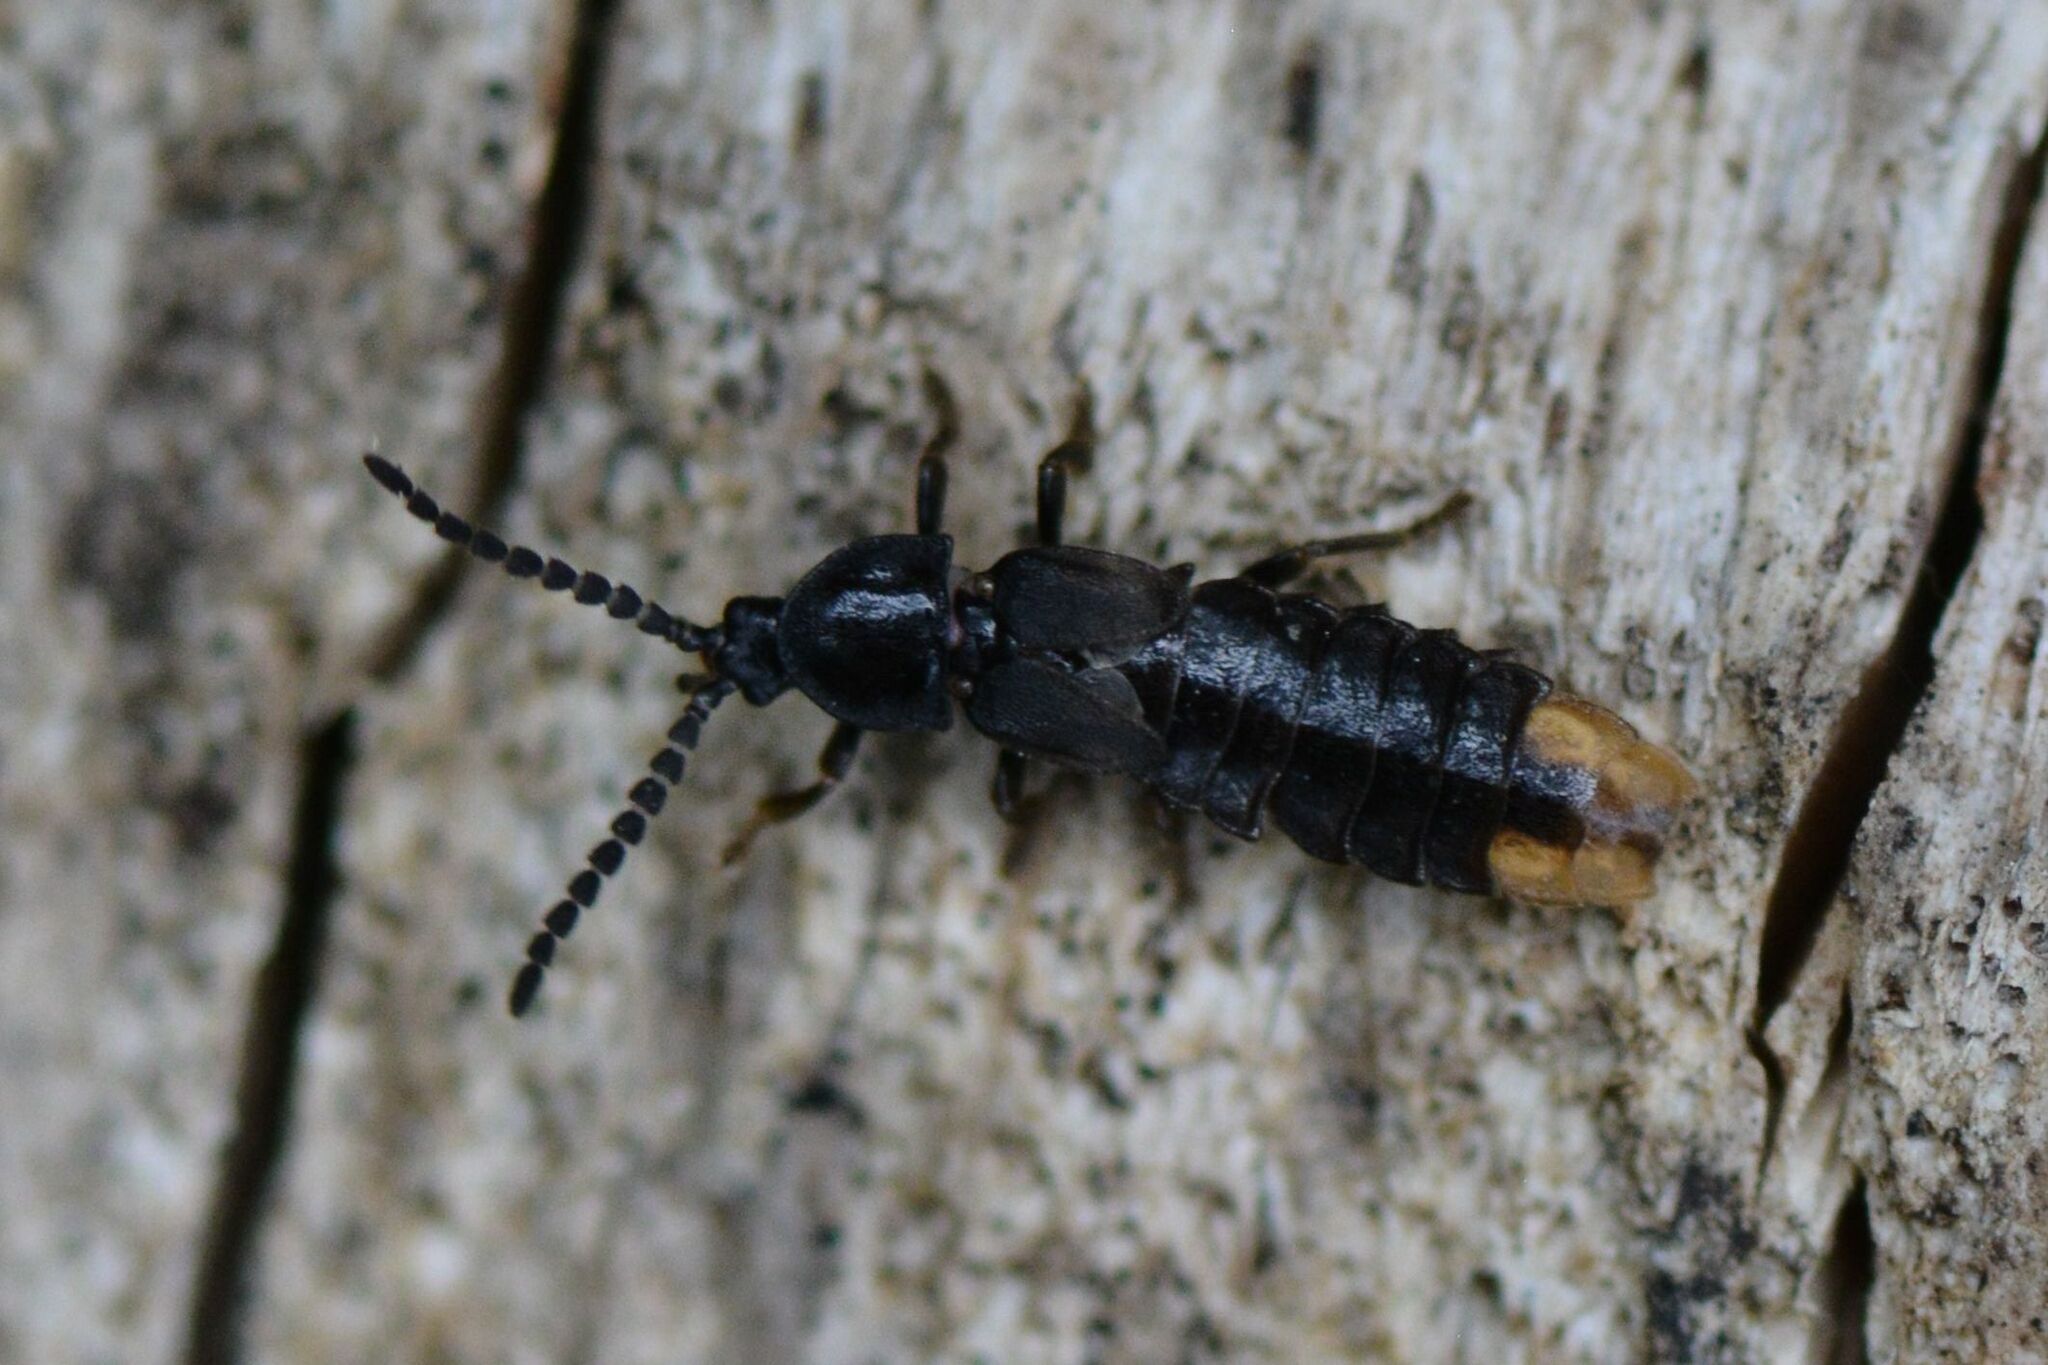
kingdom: Animalia
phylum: Arthropoda
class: Insecta
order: Coleoptera
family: Lampyridae
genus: Phosphaenus
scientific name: Phosphaenus hemipterus
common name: Short-winged firefly
